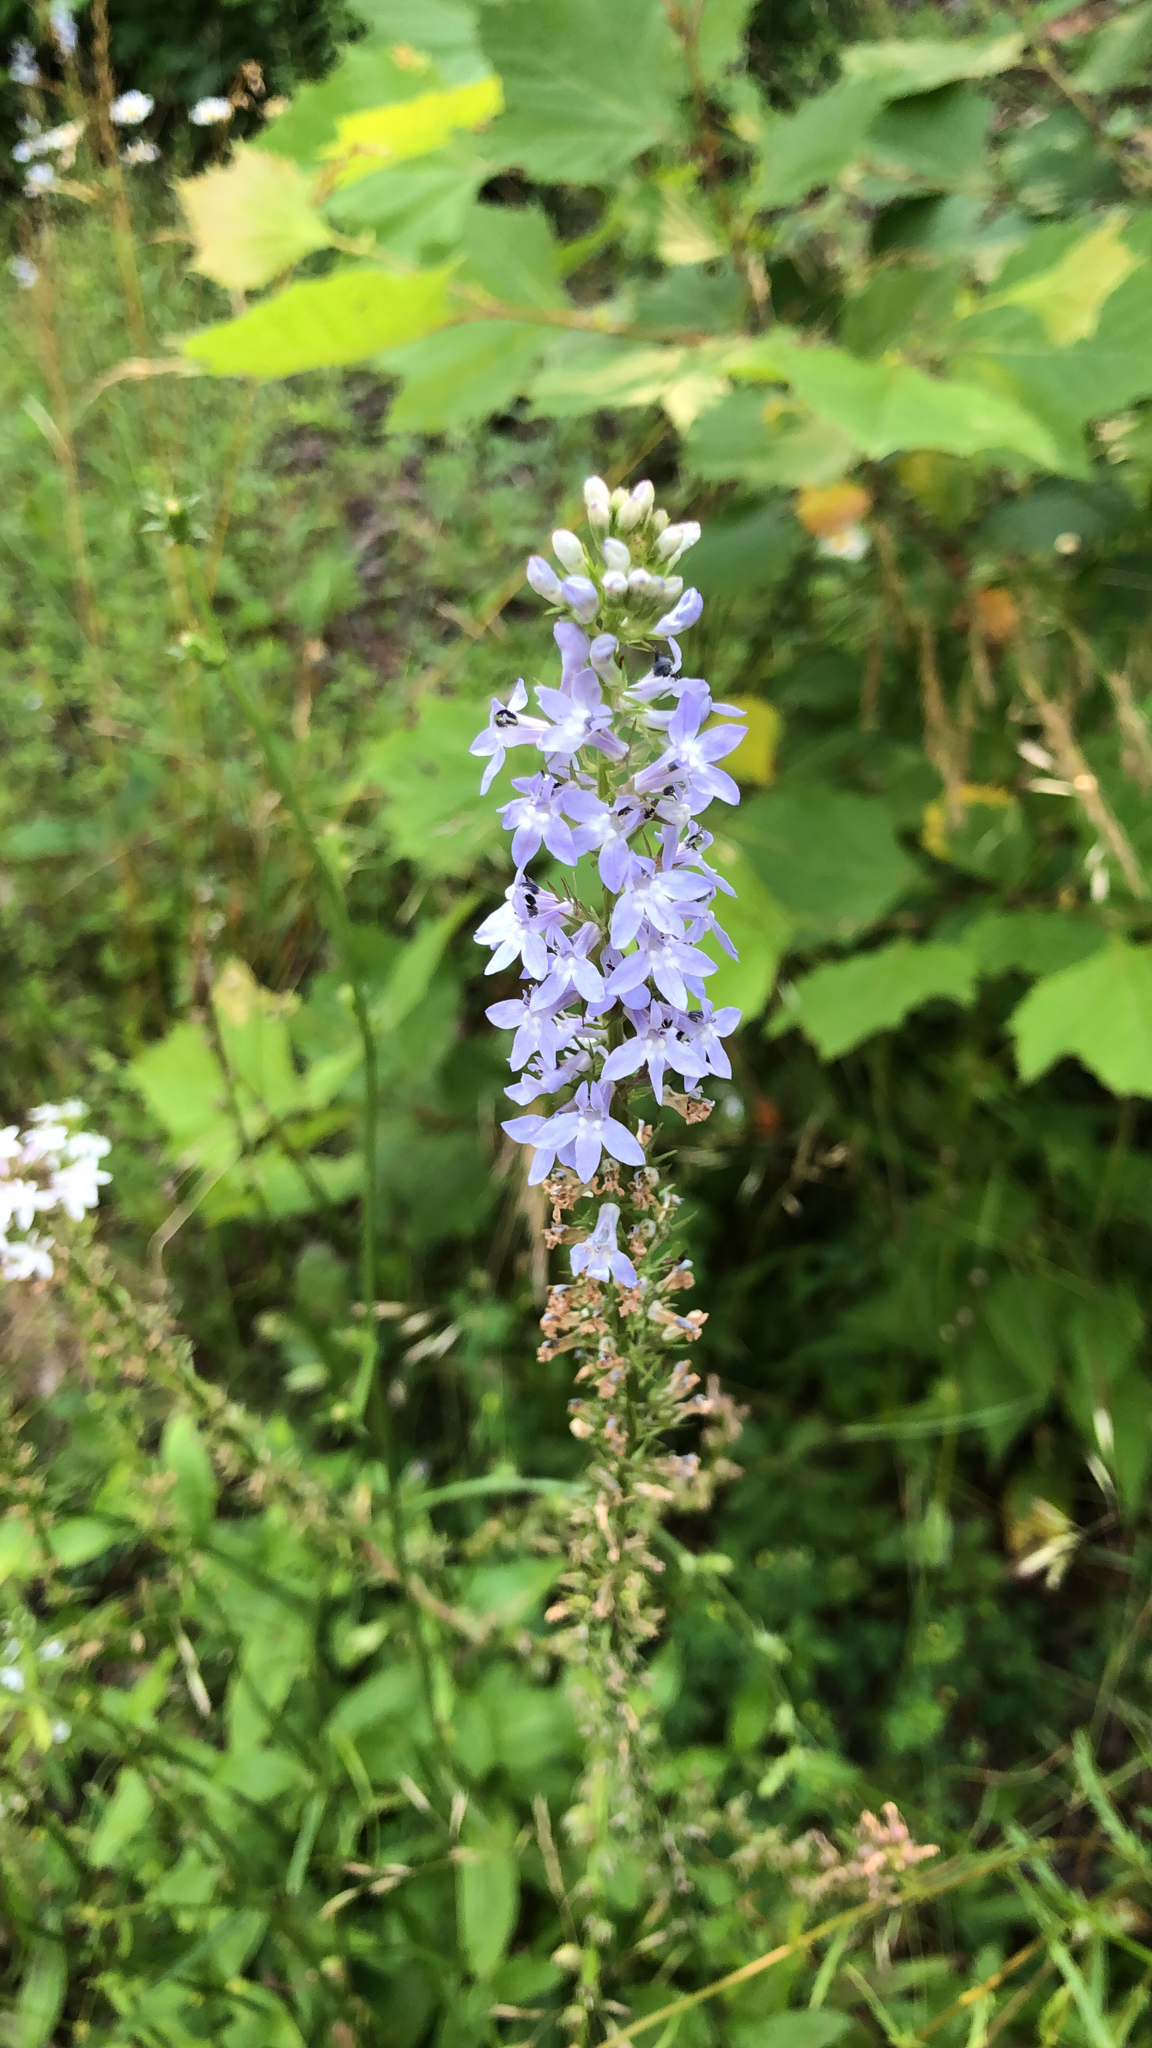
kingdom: Plantae
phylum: Tracheophyta
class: Magnoliopsida
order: Asterales
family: Campanulaceae
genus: Lobelia
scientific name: Lobelia spicata
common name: Pale-spike lobelia
